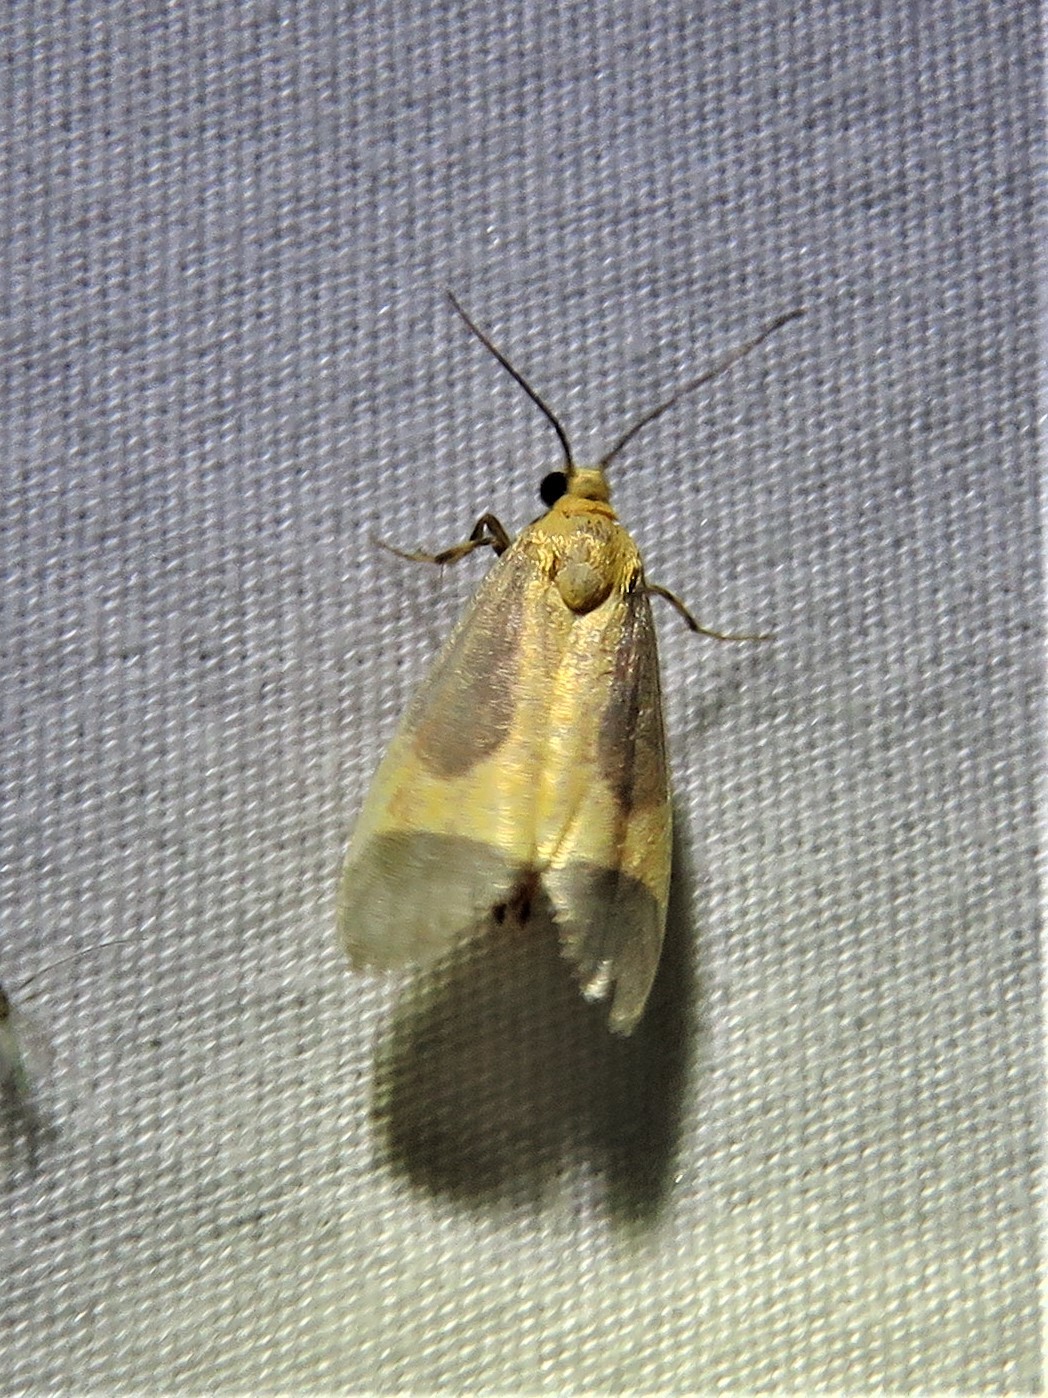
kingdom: Animalia
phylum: Arthropoda
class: Insecta
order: Lepidoptera
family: Erebidae
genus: Cisthene
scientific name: Cisthene picta
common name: Pictured lichen moth
